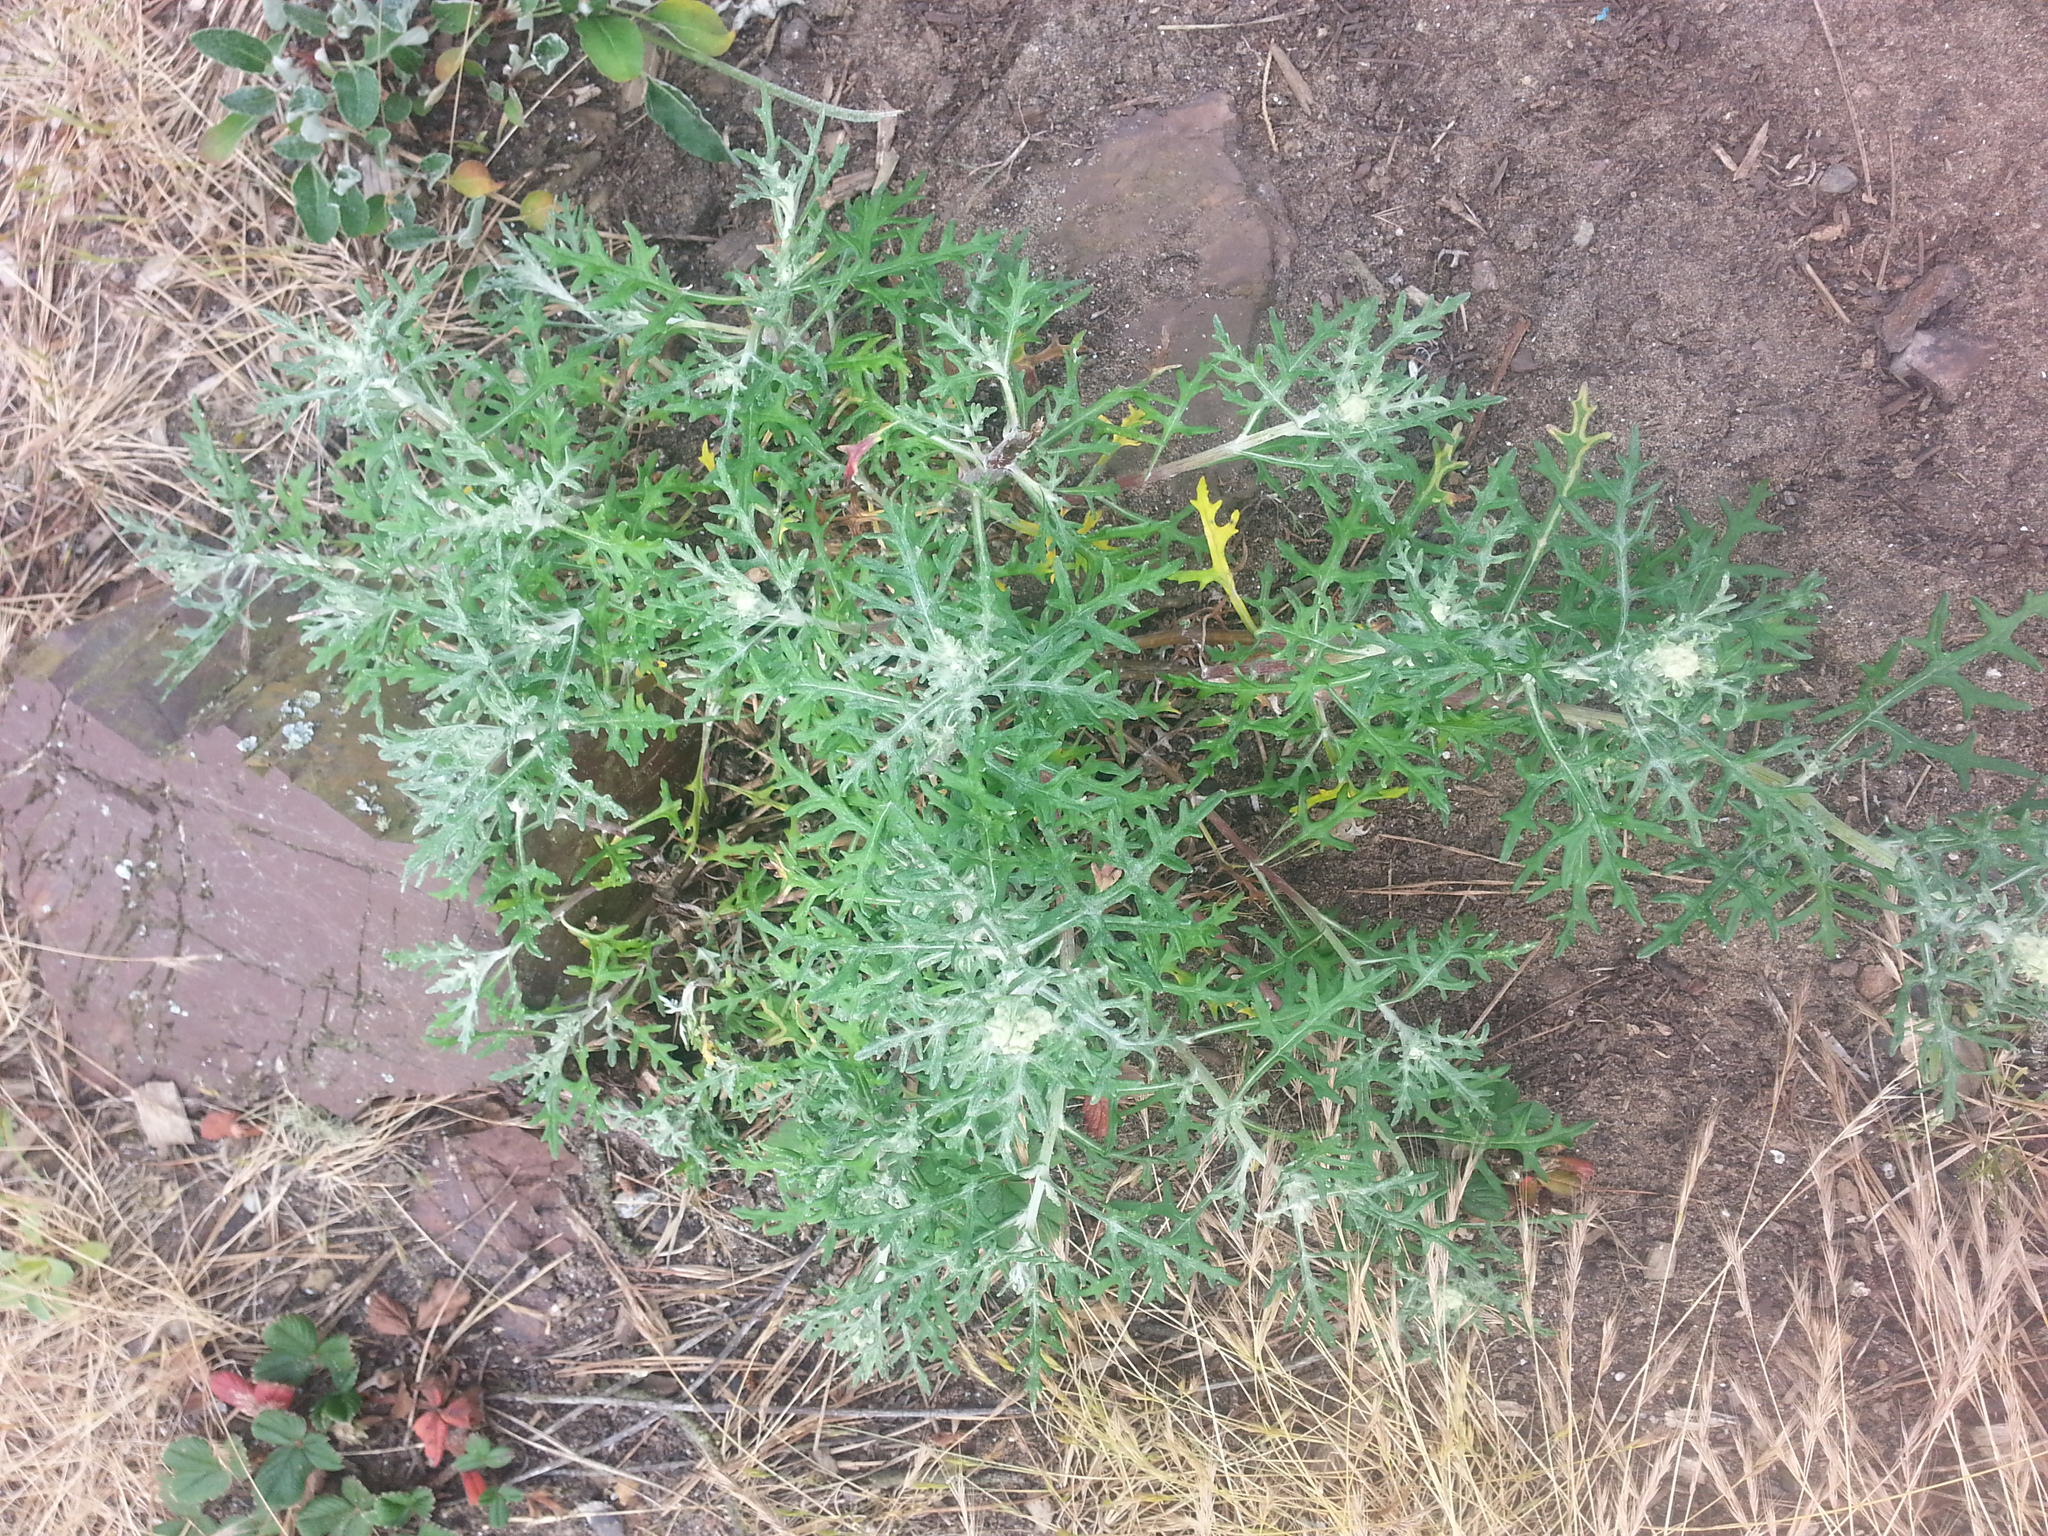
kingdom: Plantae
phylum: Tracheophyta
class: Magnoliopsida
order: Asterales
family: Asteraceae
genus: Eriophyllum
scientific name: Eriophyllum staechadifolium
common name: Lizardtail
